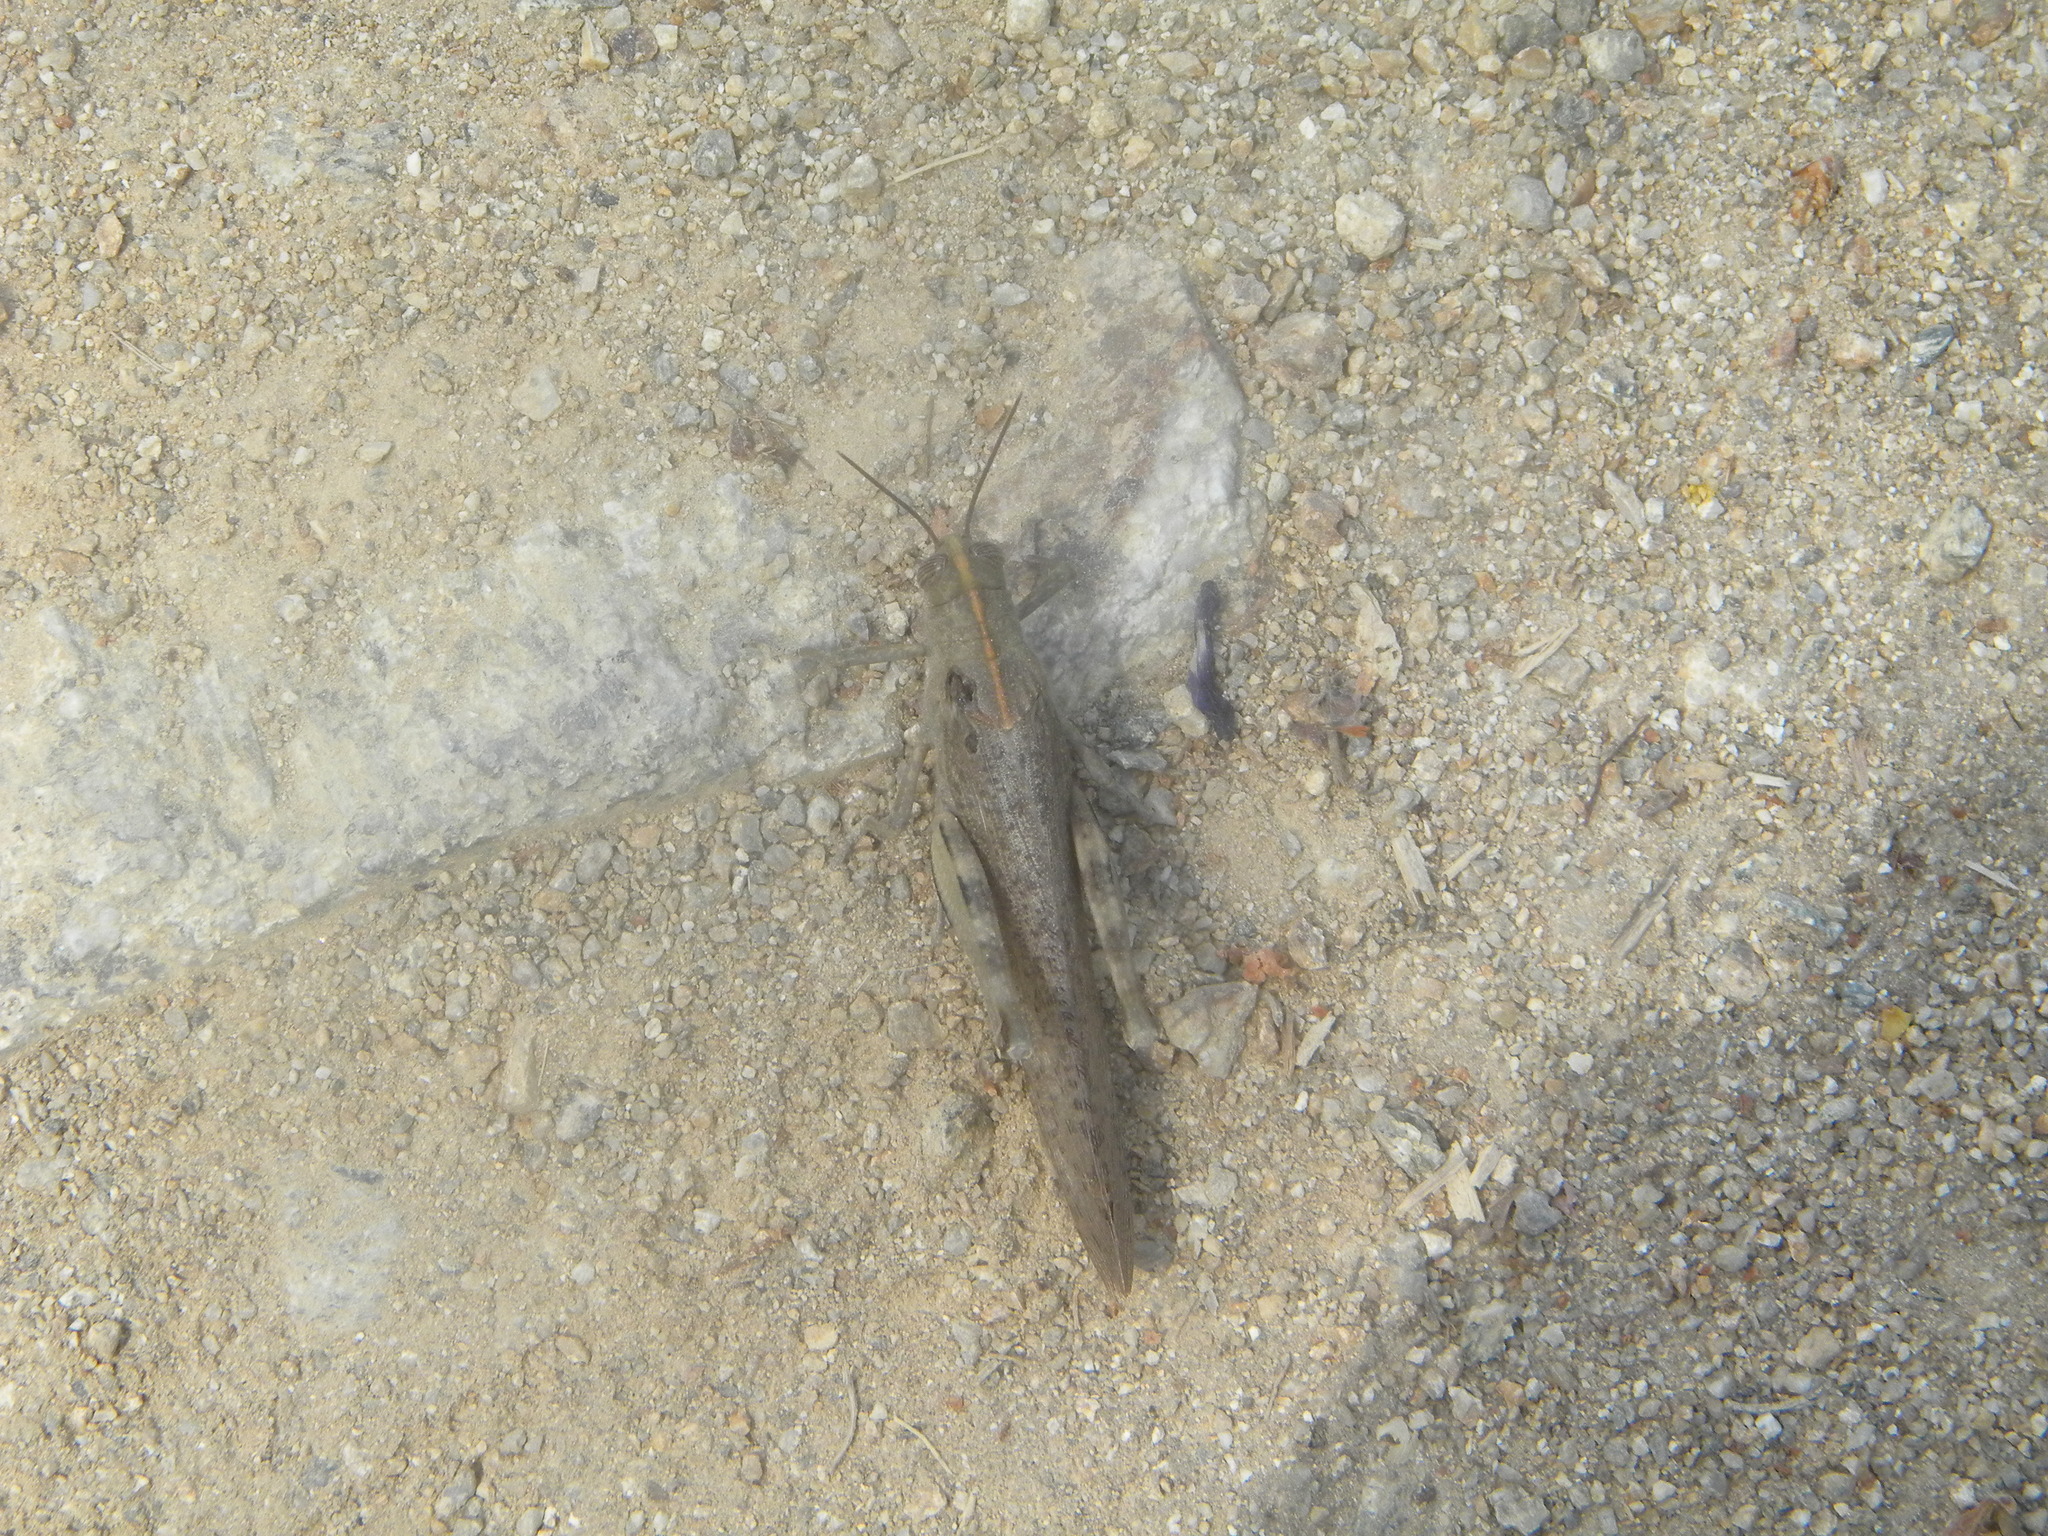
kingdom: Animalia
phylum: Arthropoda
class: Insecta
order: Orthoptera
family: Acrididae
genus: Anacridium
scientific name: Anacridium aegyptium
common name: Egyptian grasshopper
